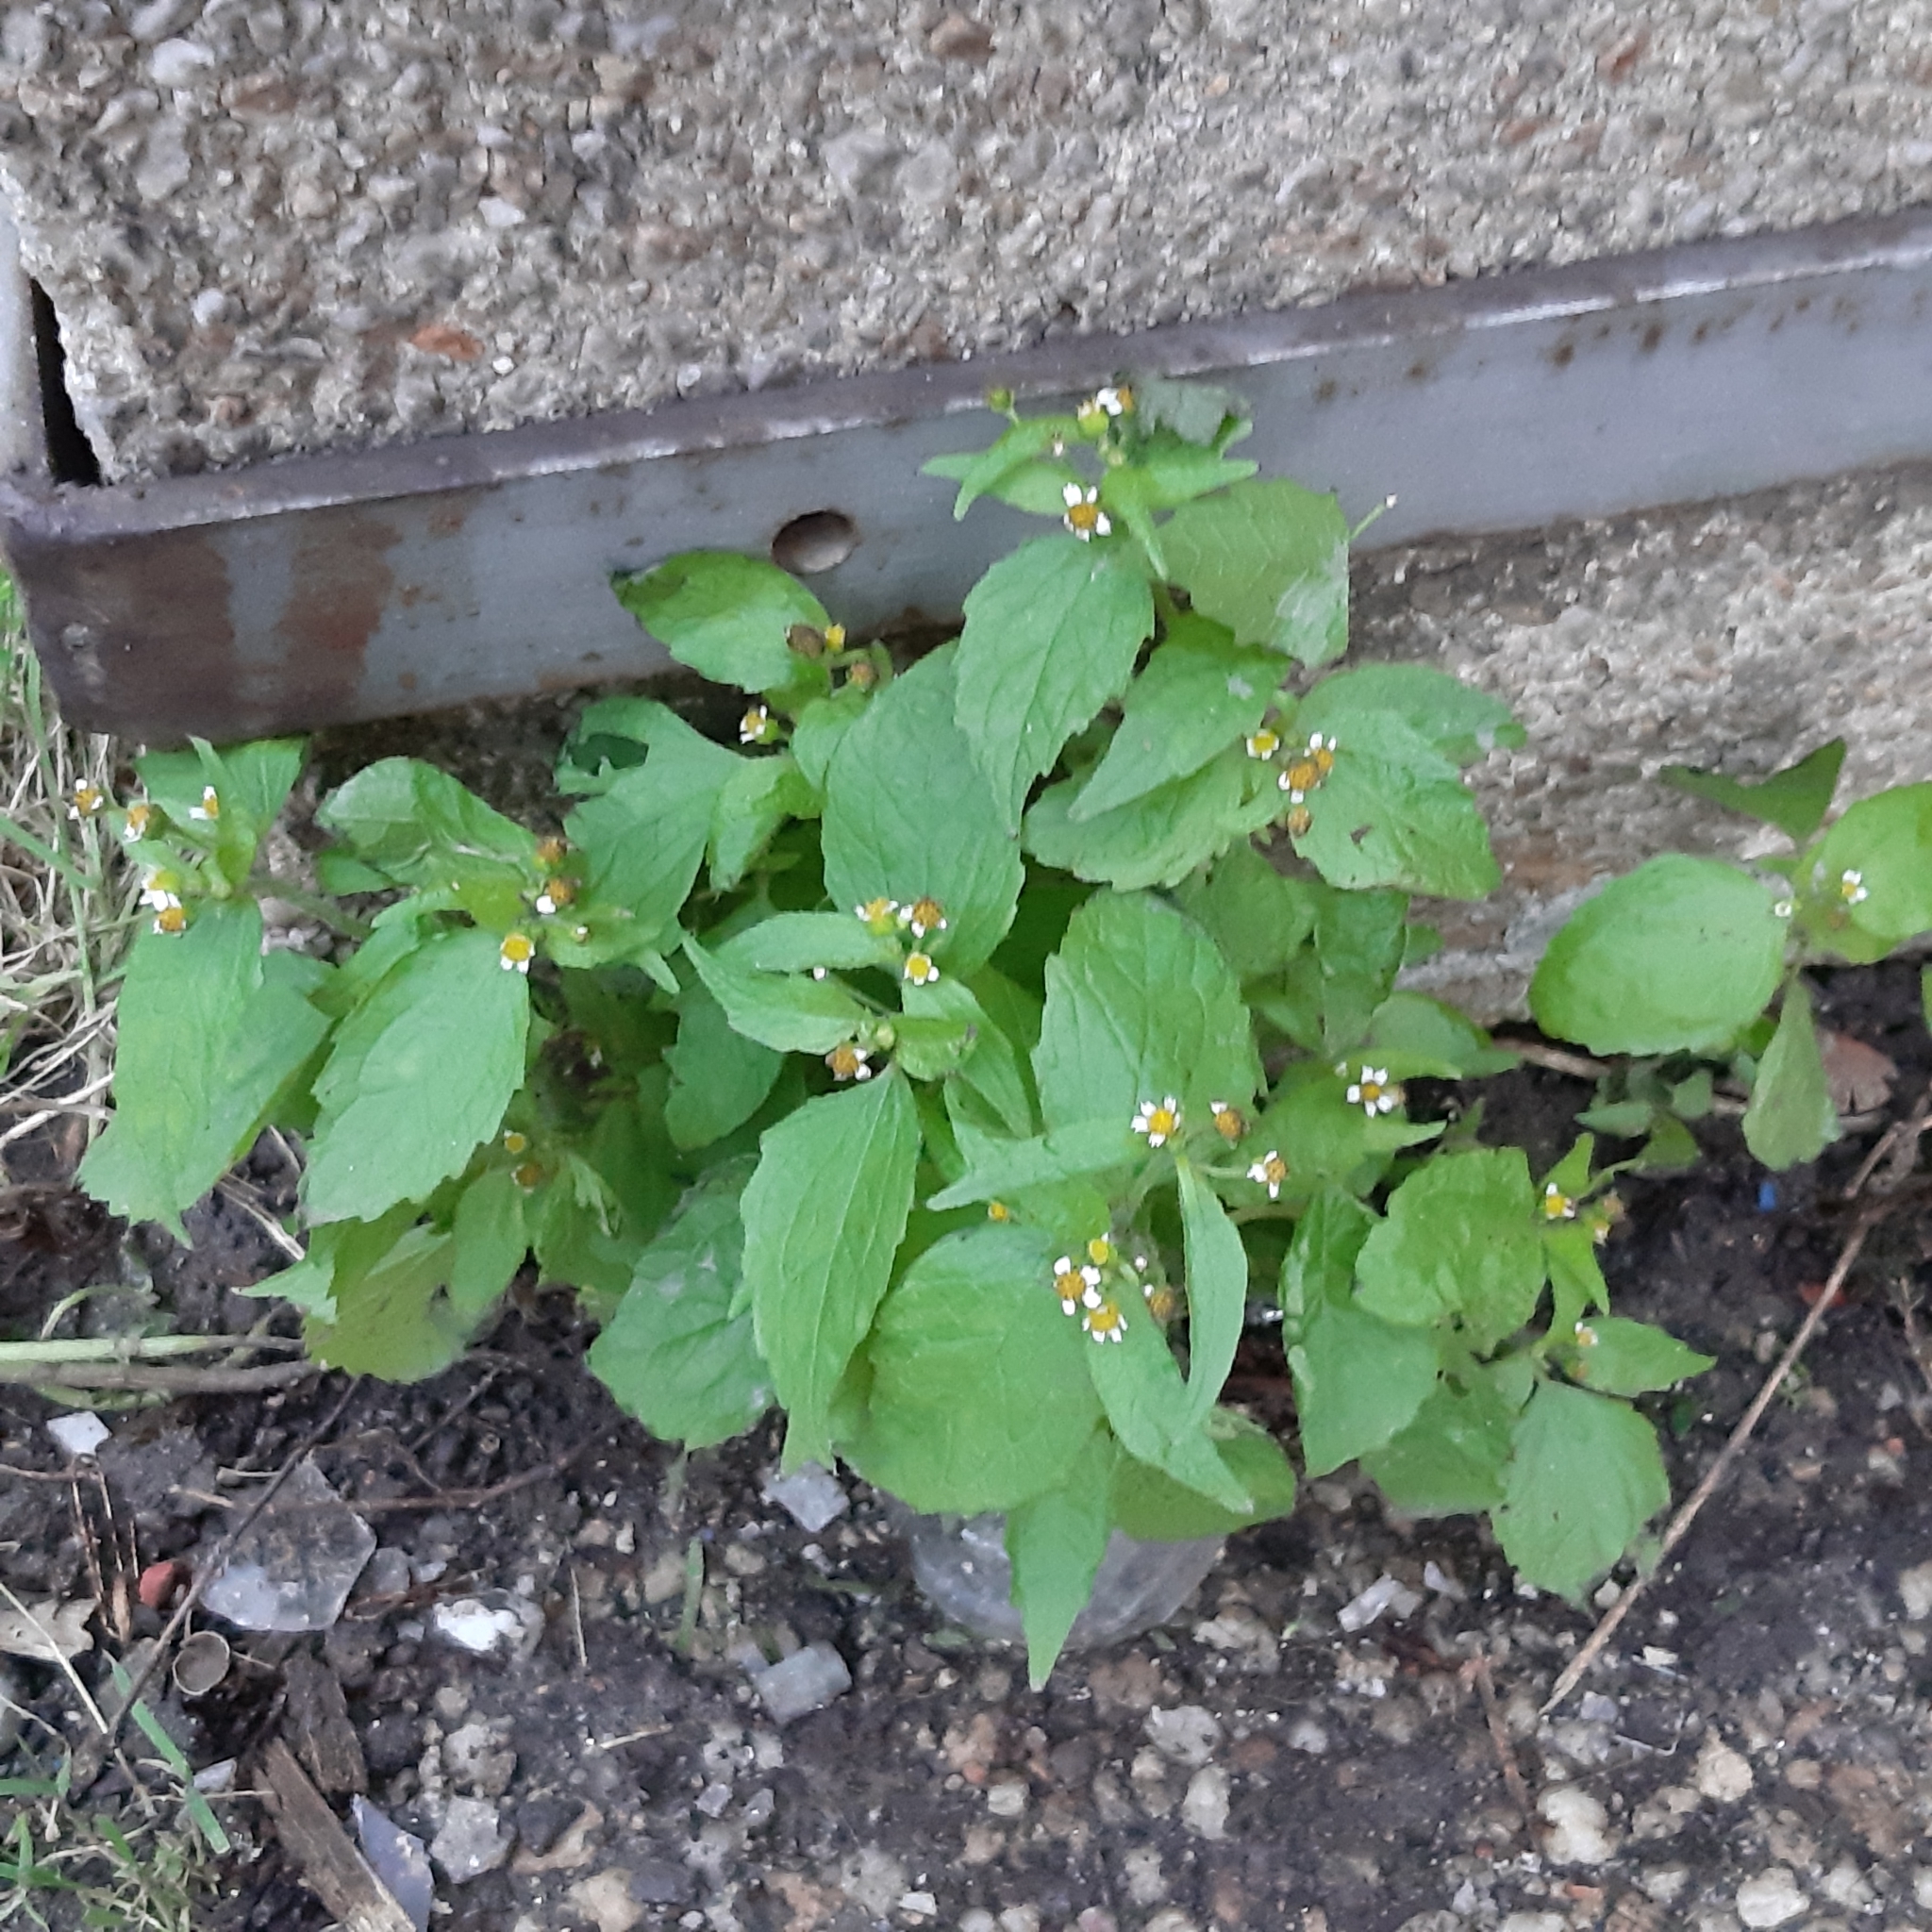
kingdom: Plantae
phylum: Tracheophyta
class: Magnoliopsida
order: Asterales
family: Asteraceae
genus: Galinsoga
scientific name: Galinsoga quadriradiata
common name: Shaggy soldier
